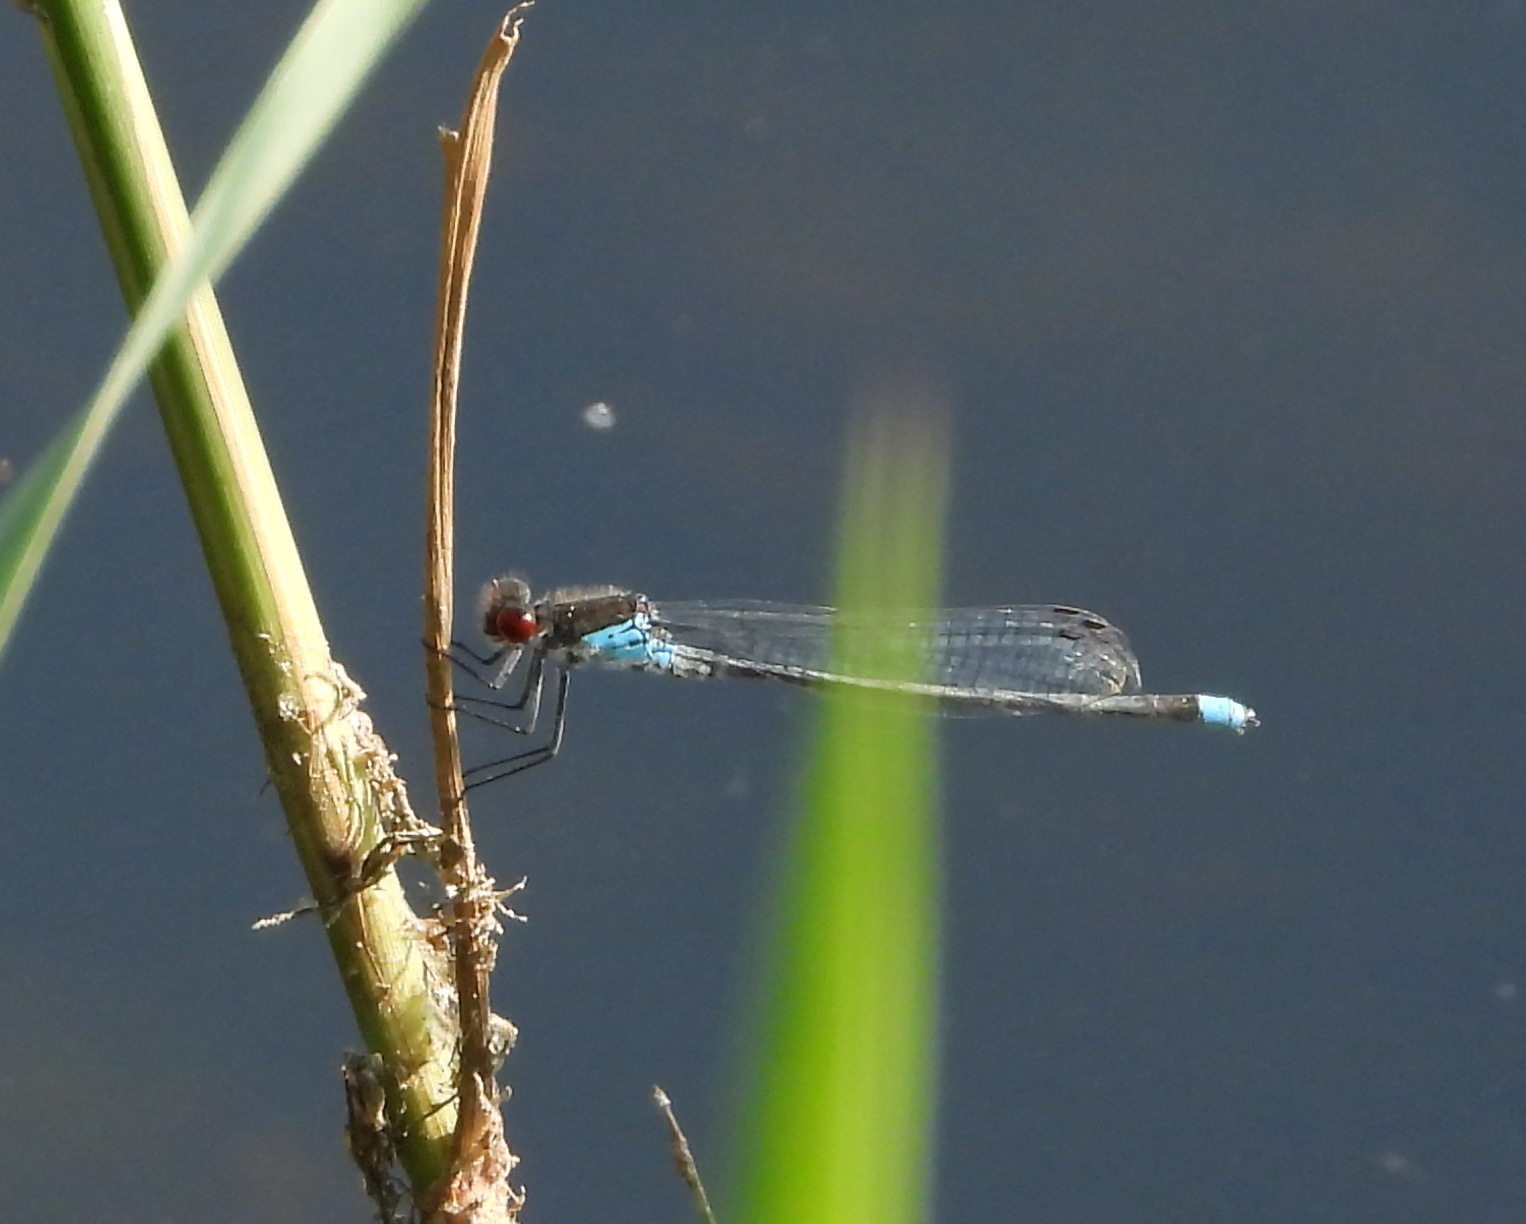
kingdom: Animalia
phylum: Arthropoda
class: Insecta
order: Odonata
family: Coenagrionidae
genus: Erythromma
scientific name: Erythromma najas
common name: Red-eyed damselfly
